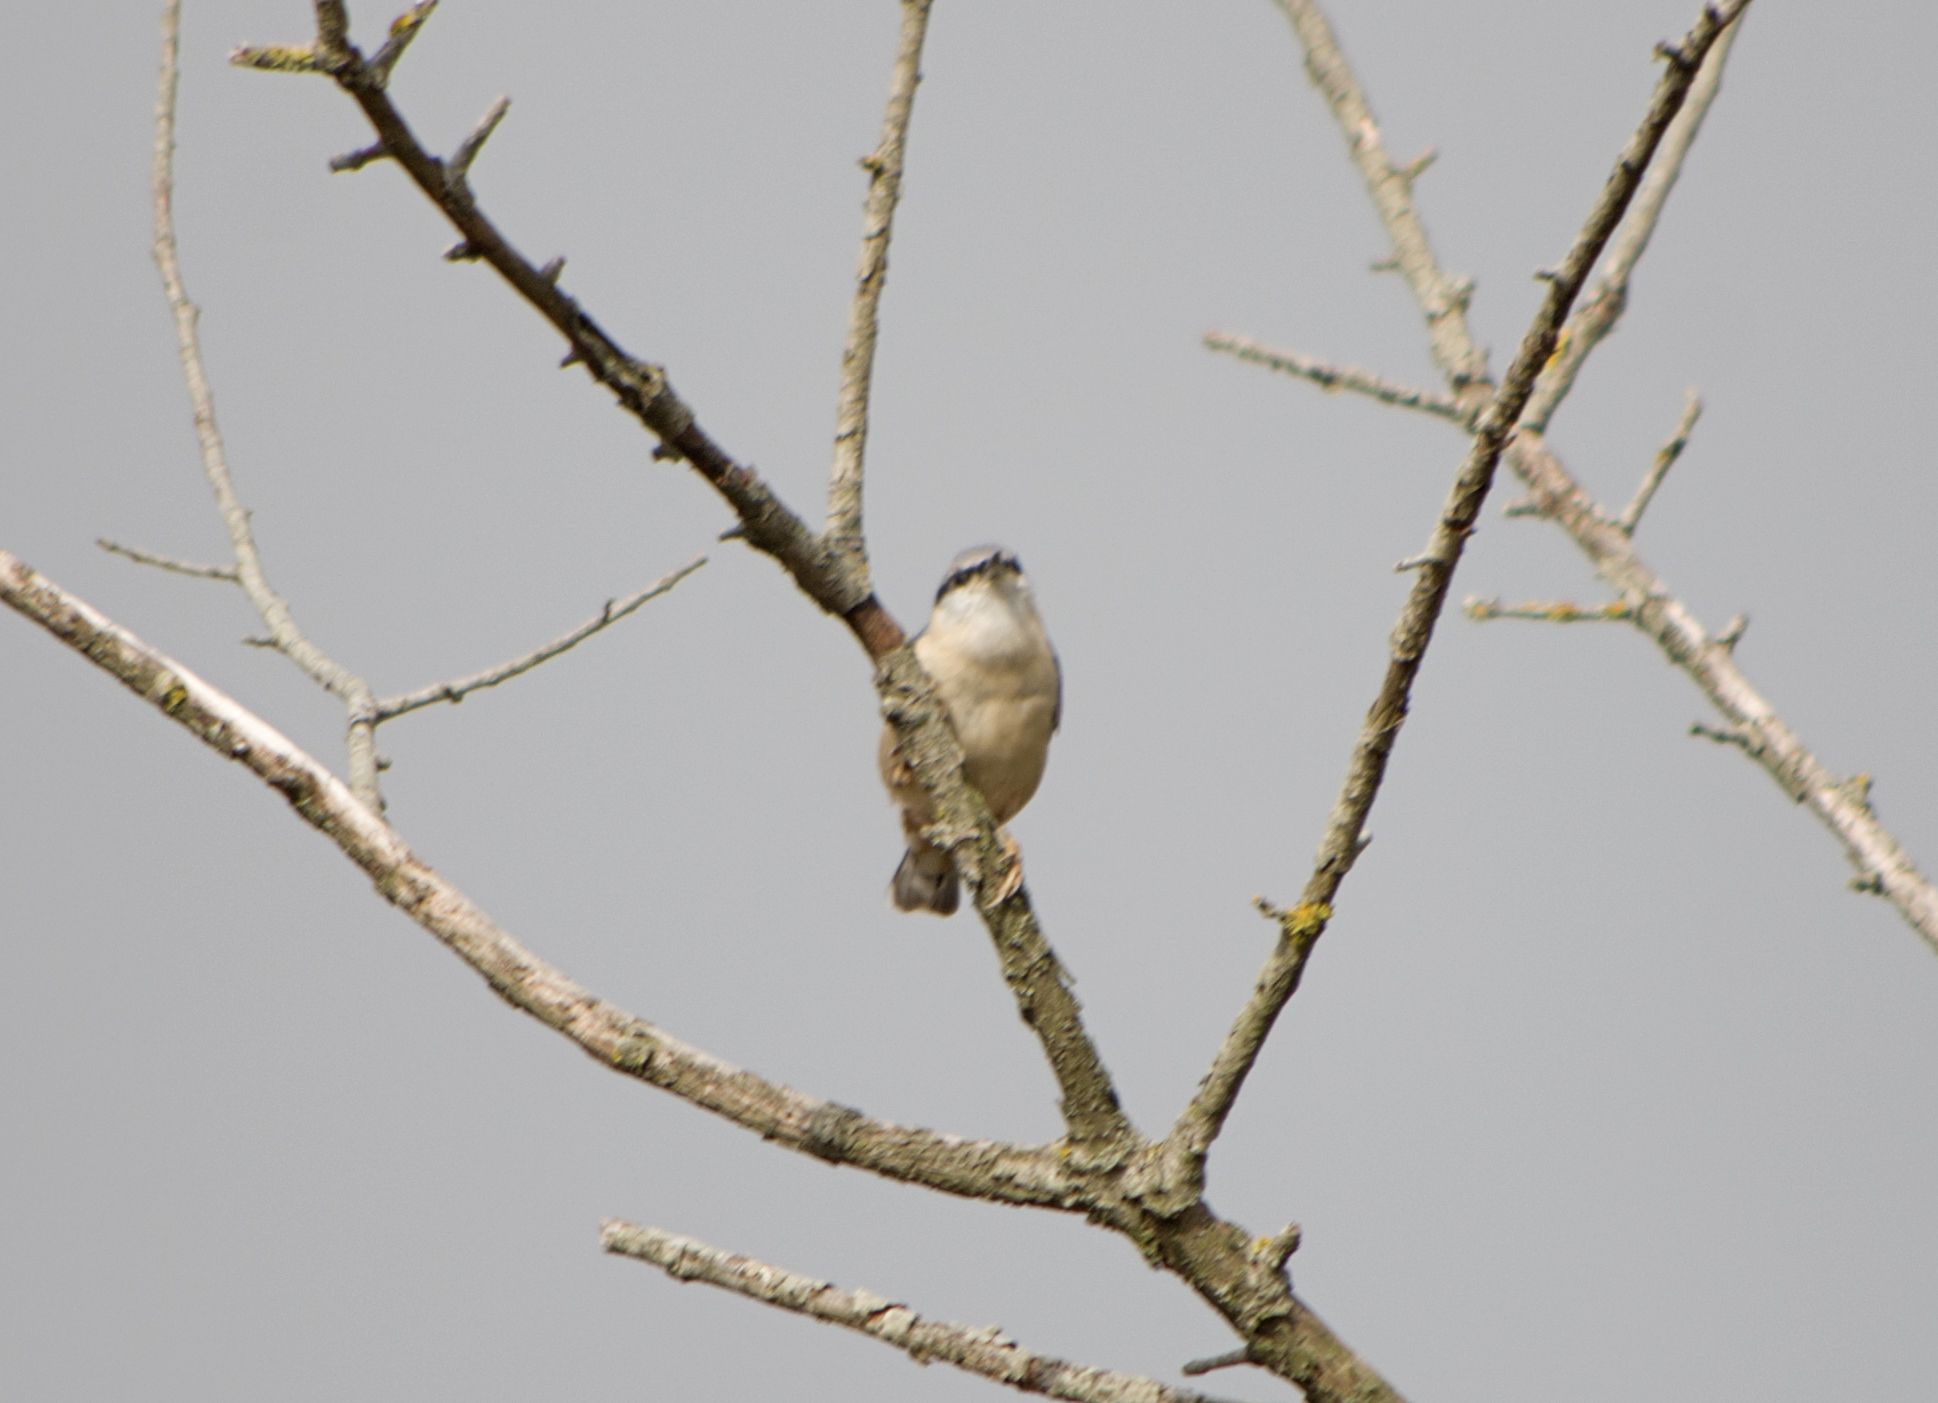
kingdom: Animalia
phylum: Chordata
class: Aves
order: Passeriformes
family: Sittidae
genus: Sitta
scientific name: Sitta europaea
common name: Eurasian nuthatch
